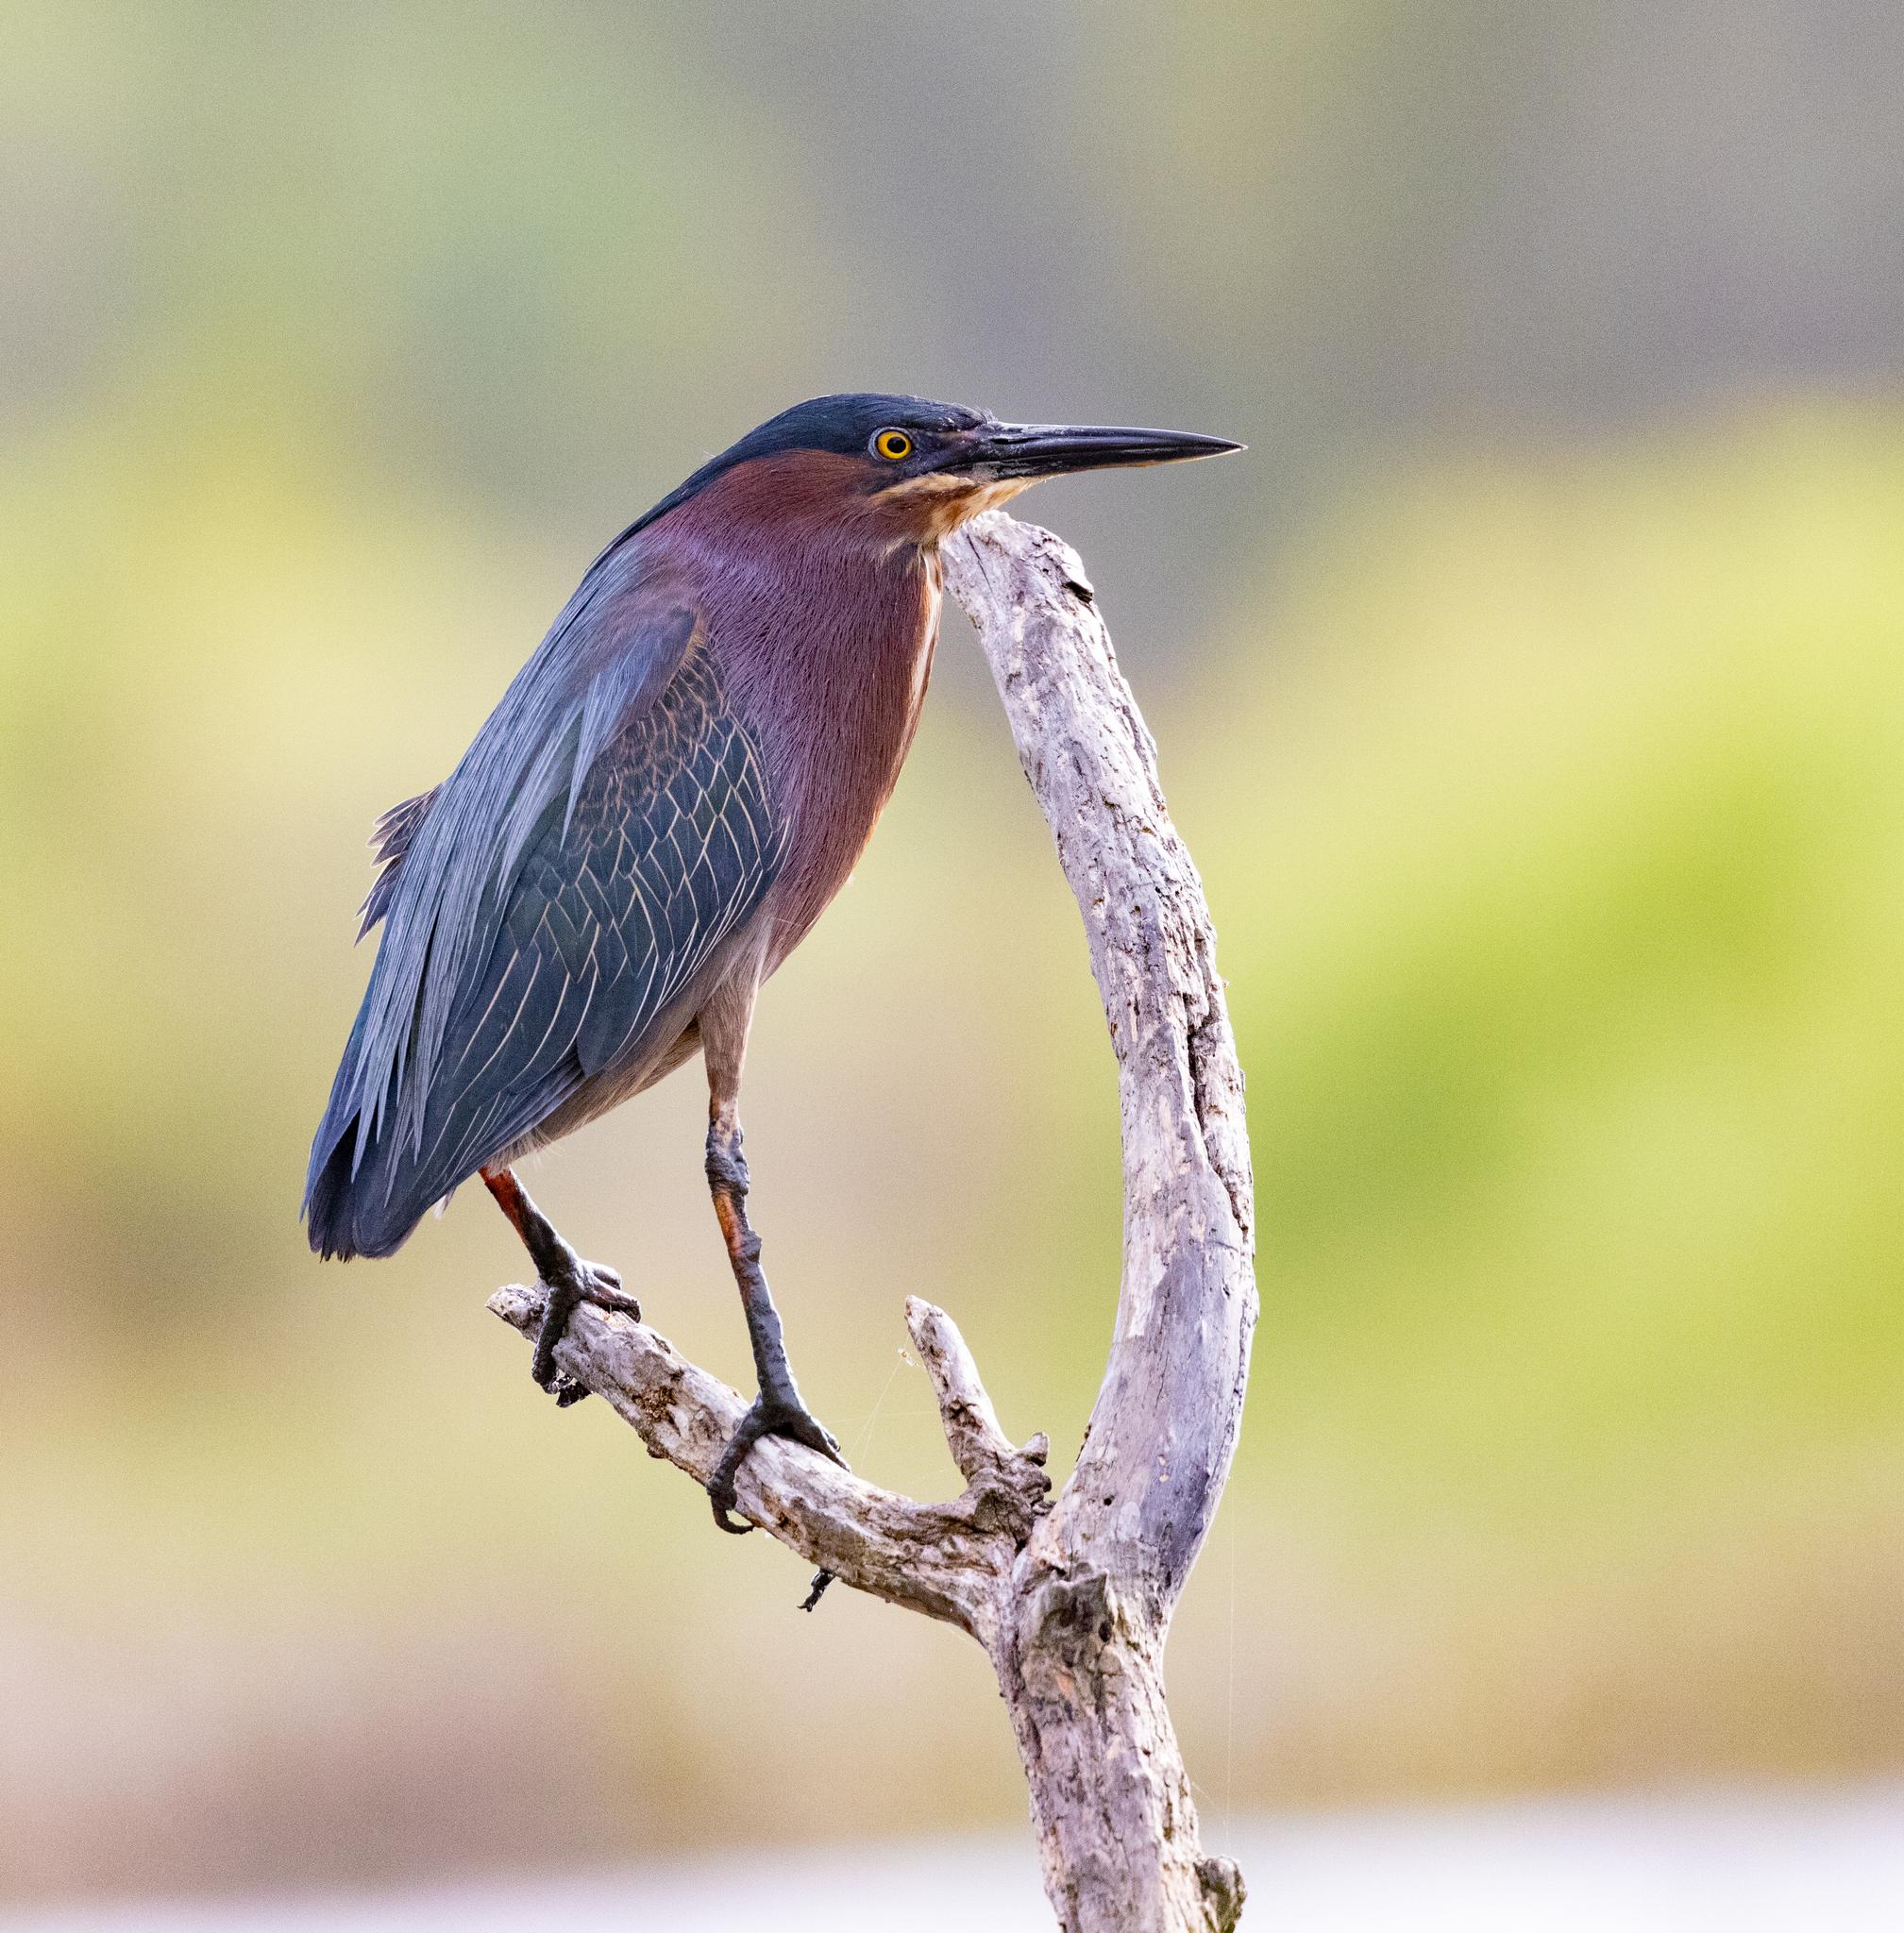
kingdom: Animalia
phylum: Chordata
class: Aves
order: Pelecaniformes
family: Ardeidae
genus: Butorides
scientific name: Butorides virescens
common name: Green heron
